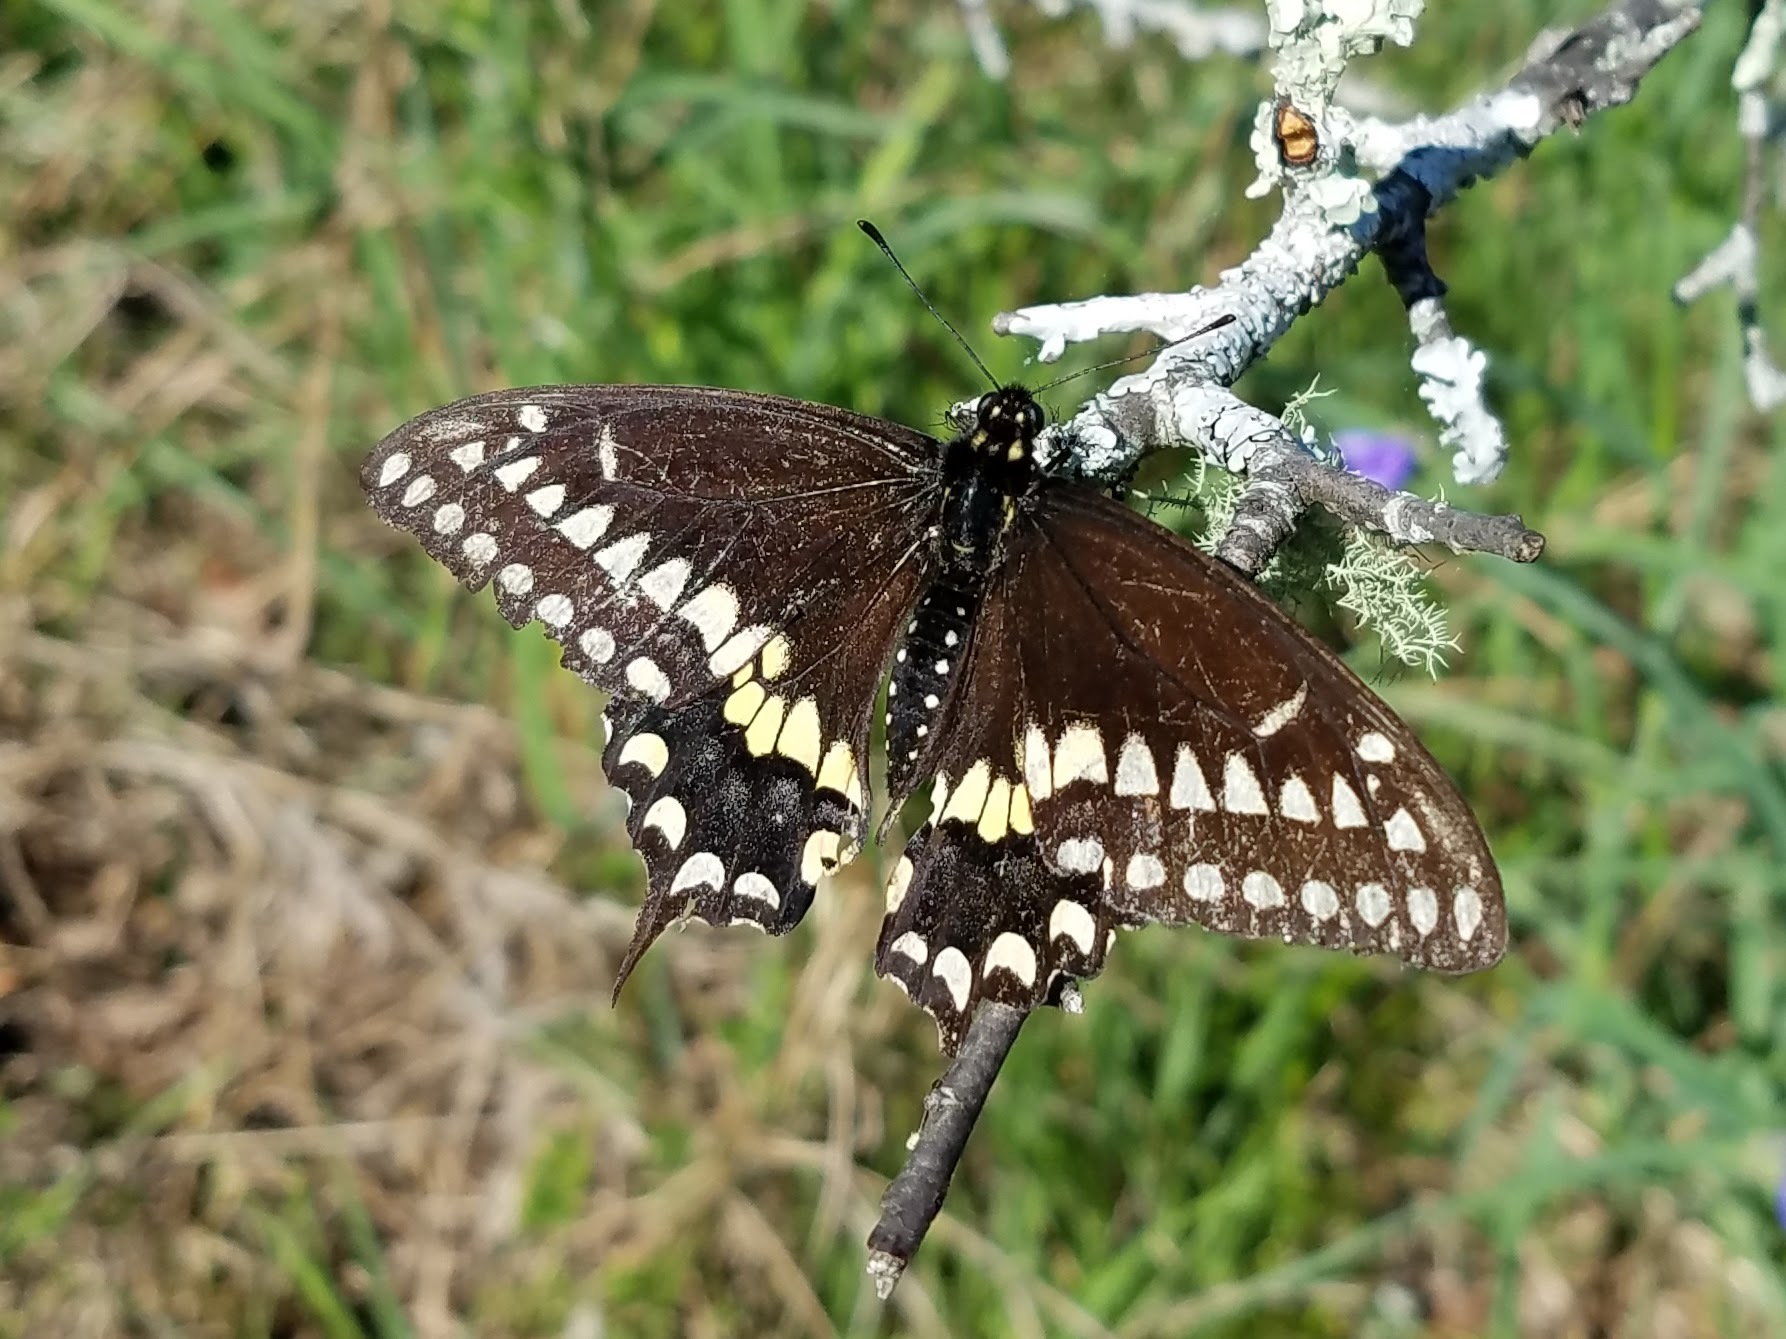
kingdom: Animalia
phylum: Arthropoda
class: Insecta
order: Lepidoptera
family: Papilionidae
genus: Papilio
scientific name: Papilio polyxenes
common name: Black swallowtail
